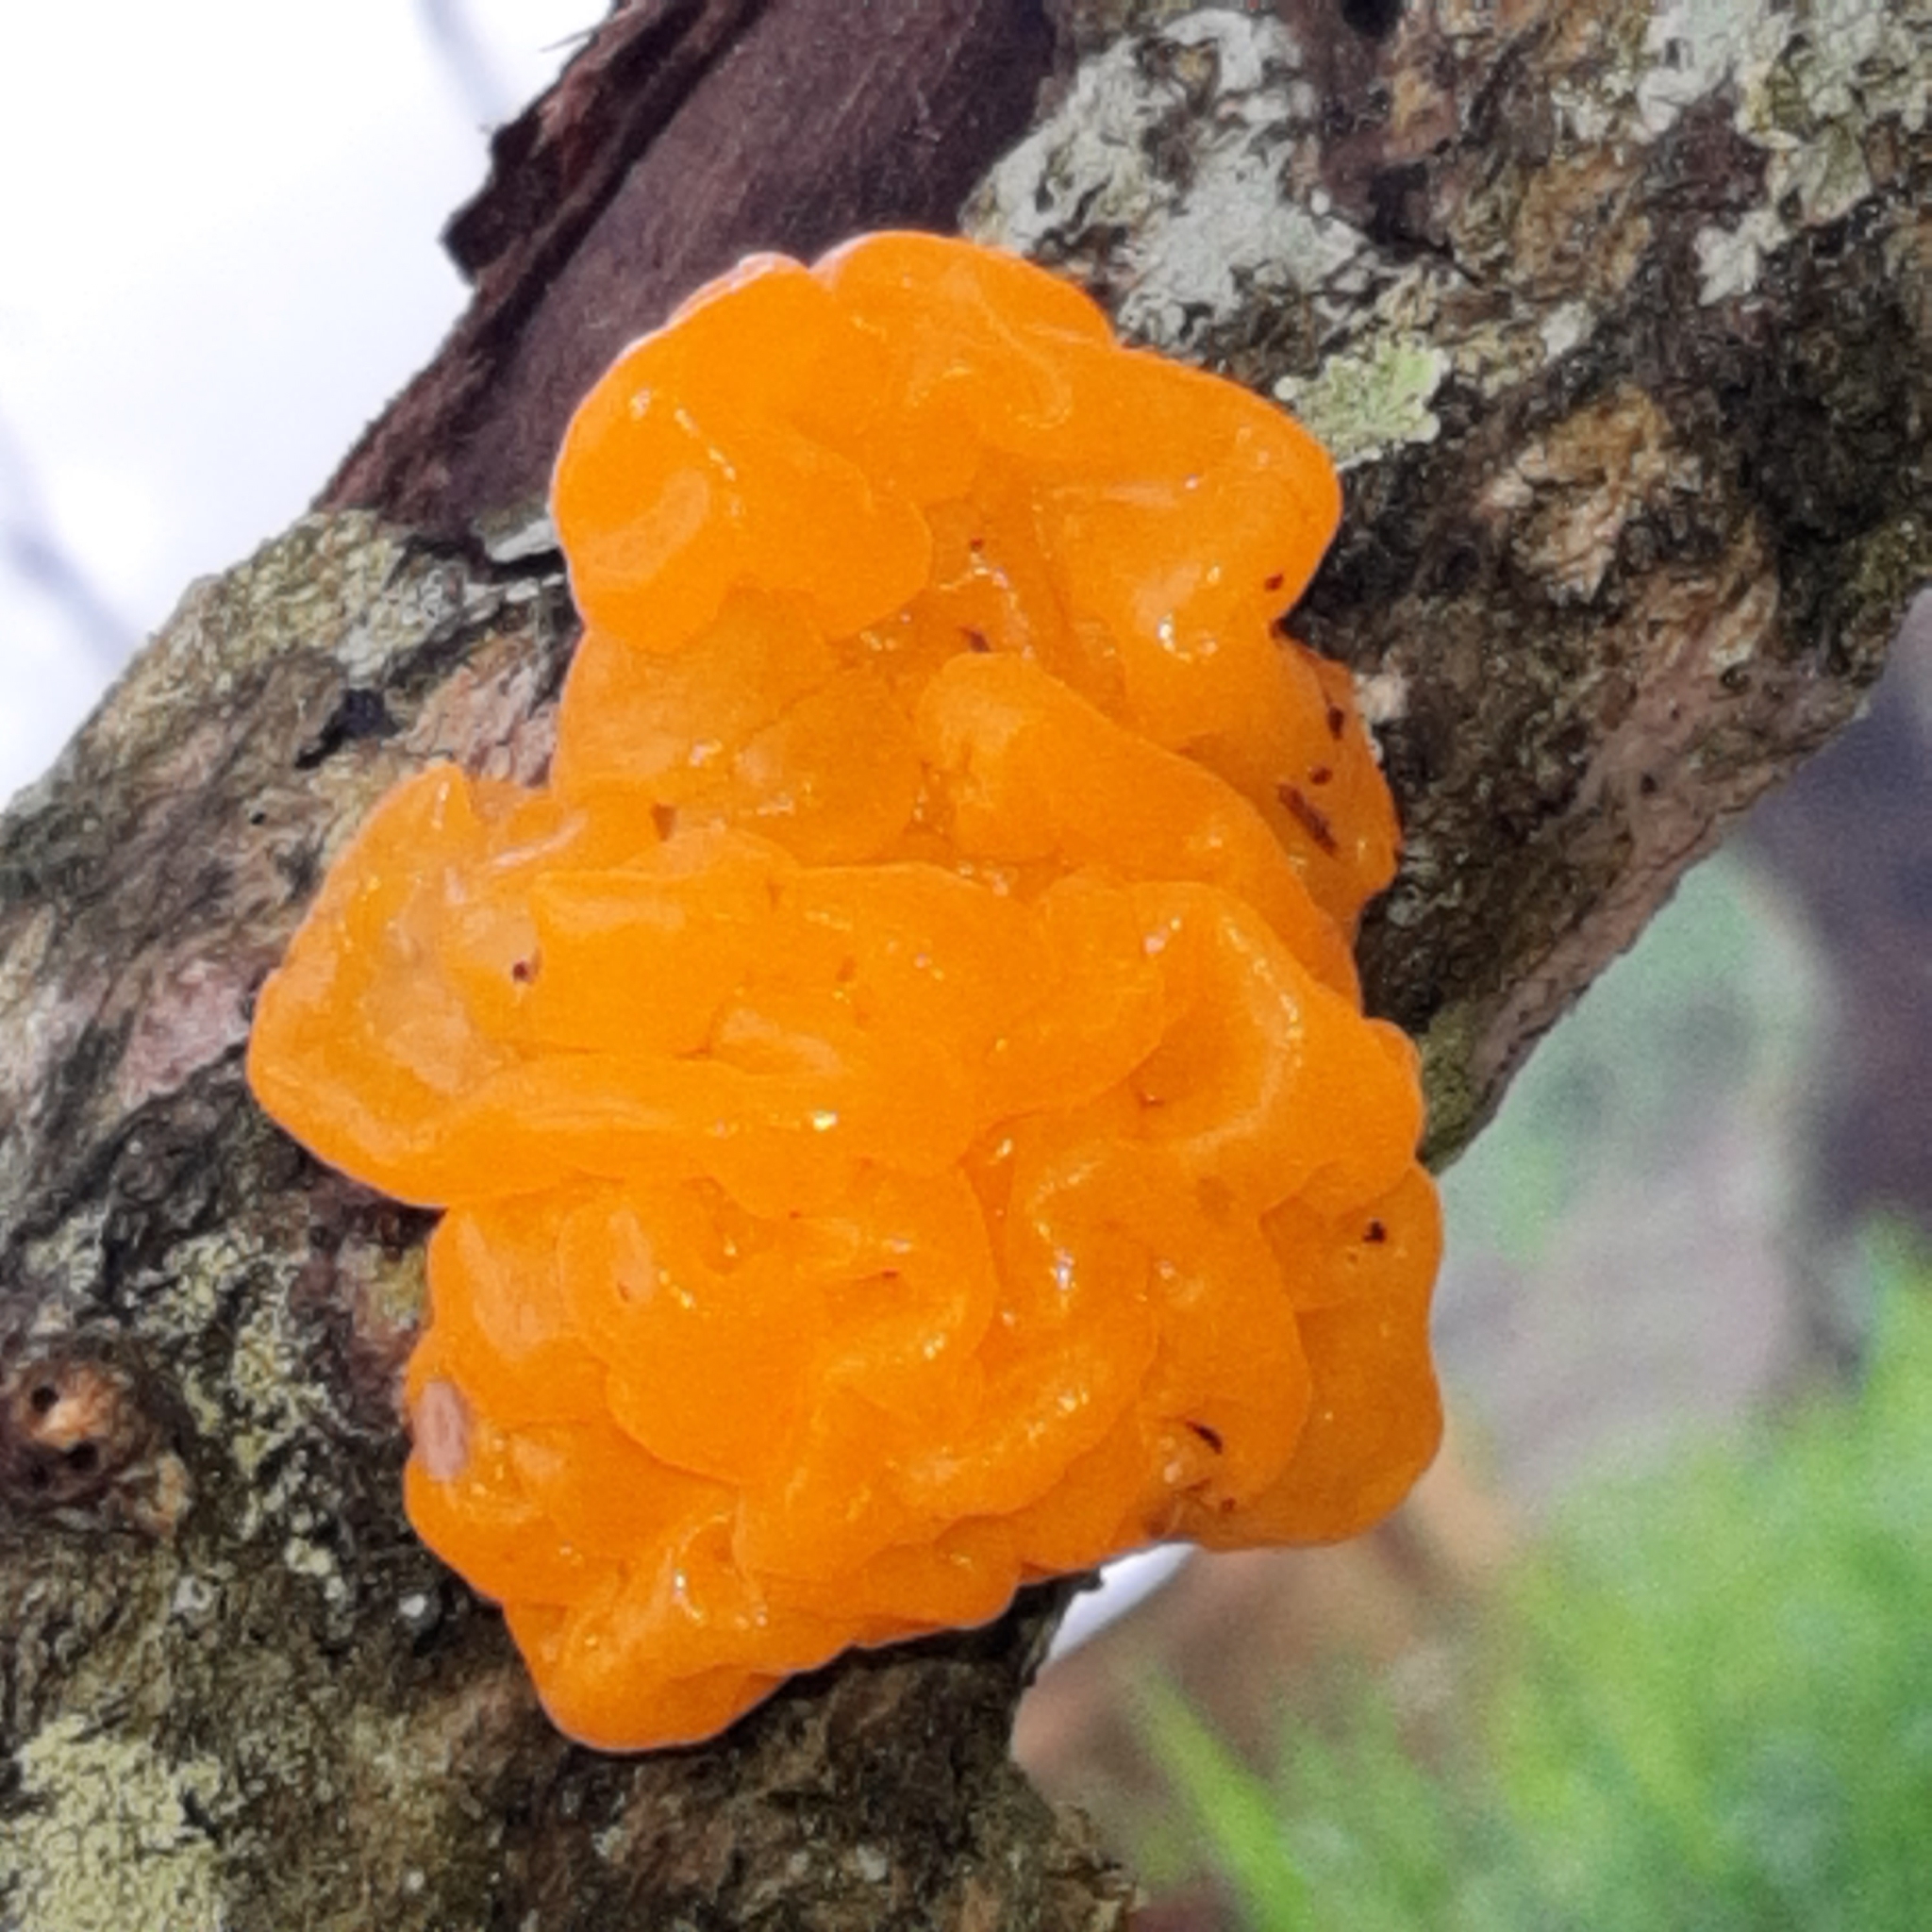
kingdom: Fungi
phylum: Basidiomycota
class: Tremellomycetes
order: Tremellales
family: Tremellaceae
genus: Tremella
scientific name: Tremella mesenterica
